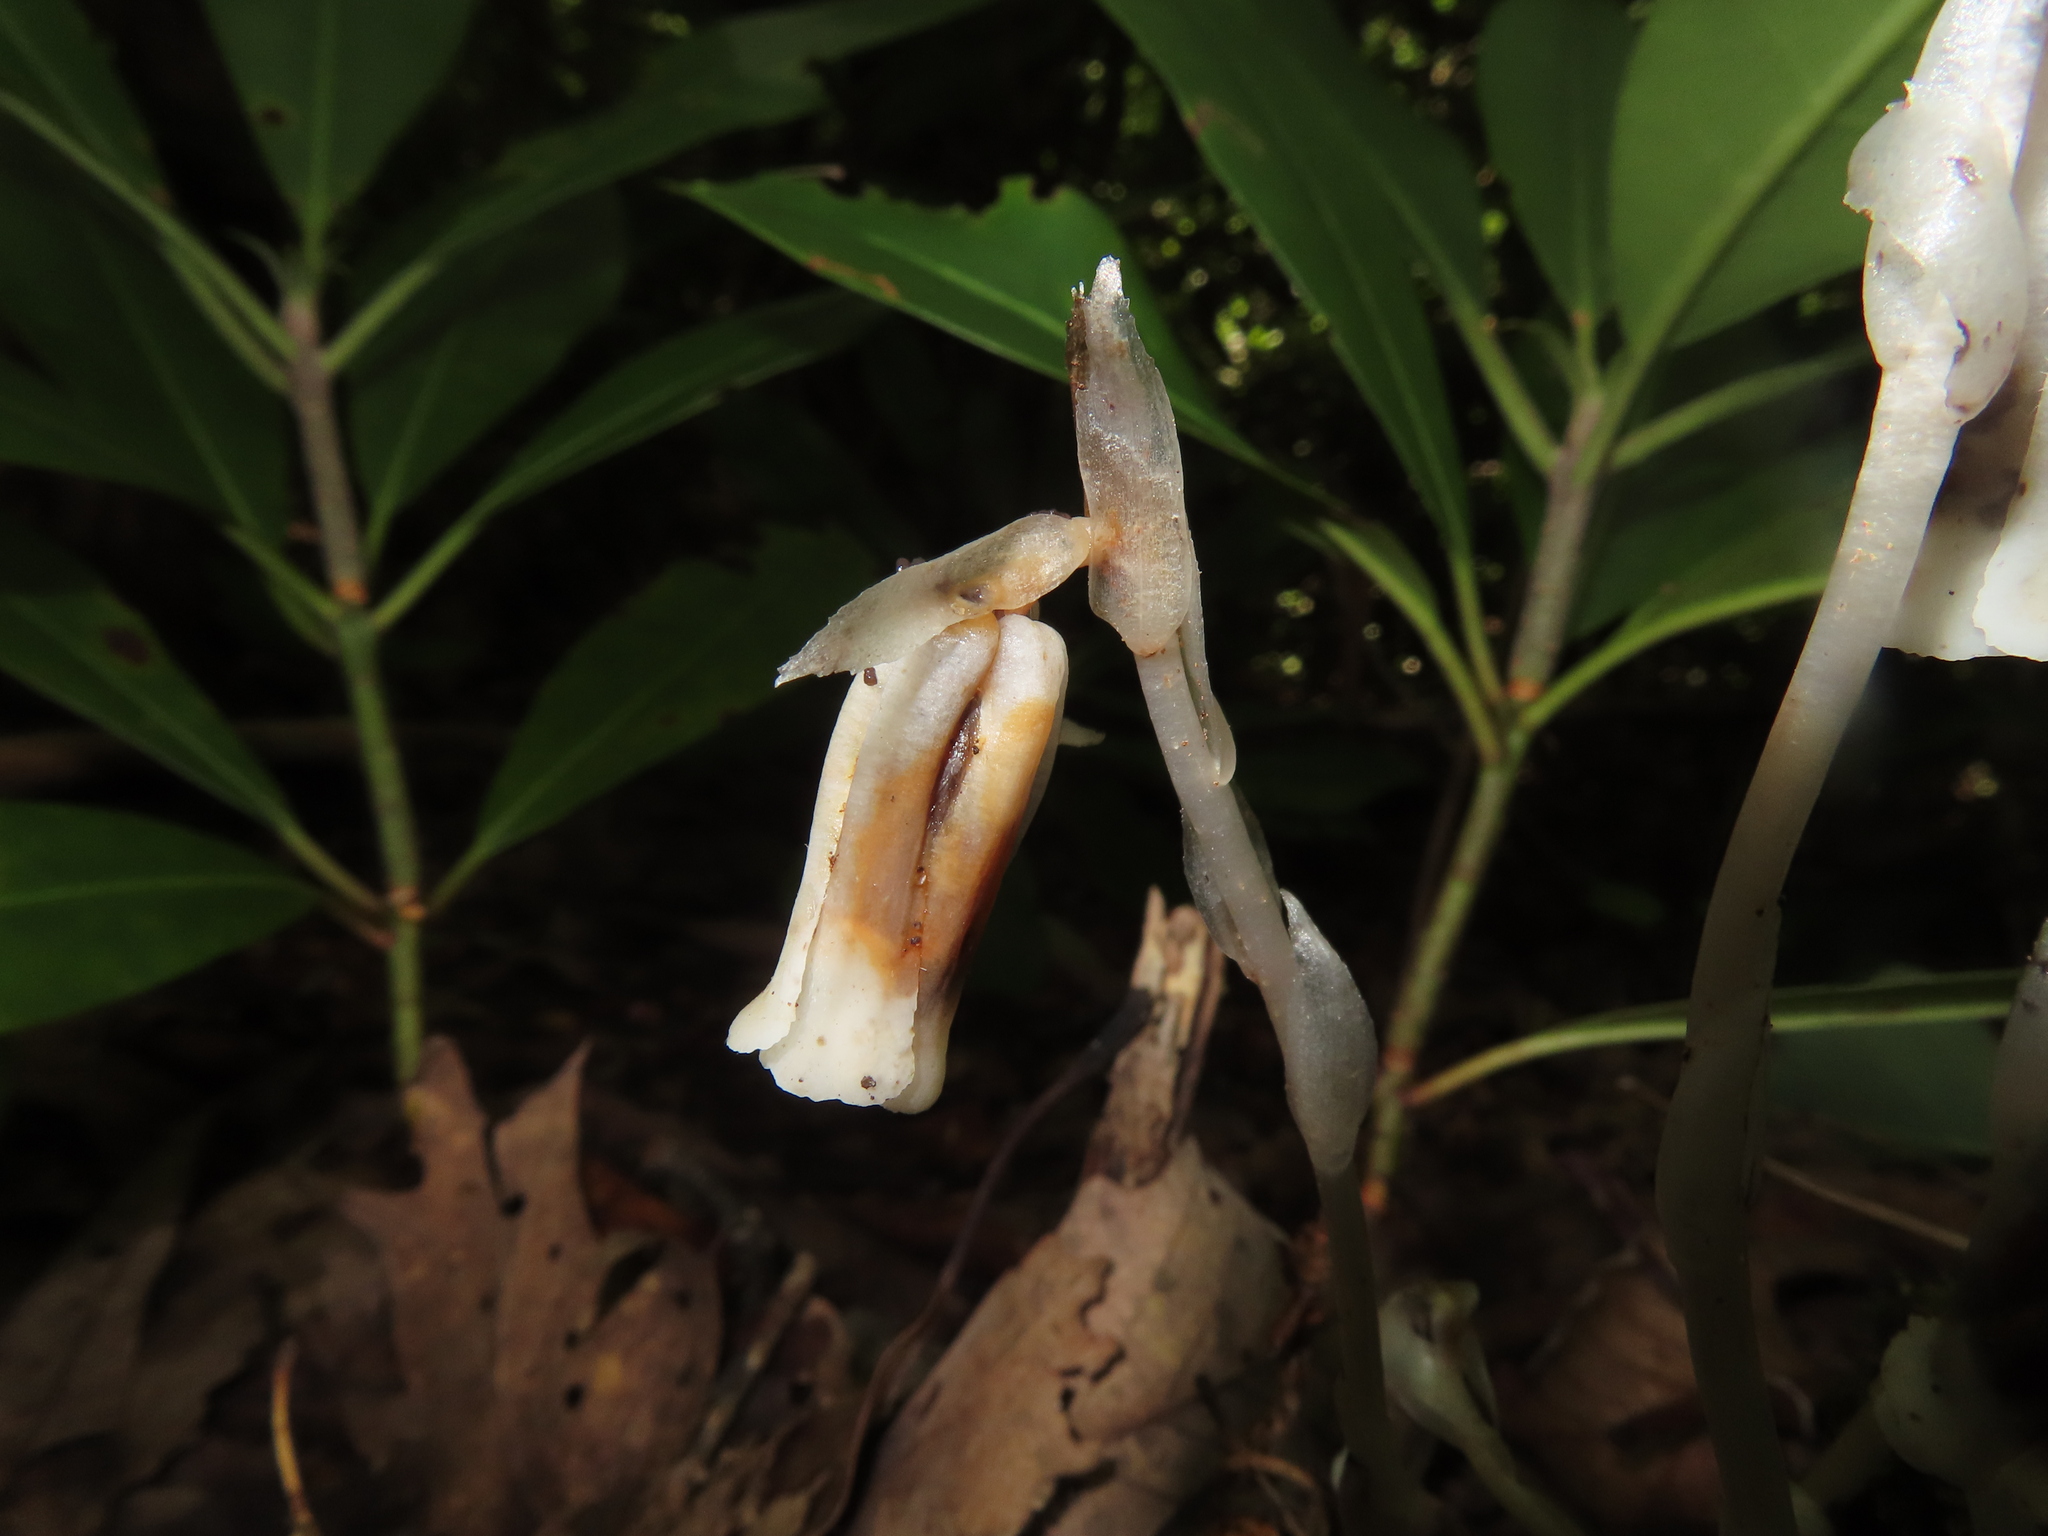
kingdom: Plantae
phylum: Tracheophyta
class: Magnoliopsida
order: Ericales
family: Ericaceae
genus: Monotropa
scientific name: Monotropa uniflora
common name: Convulsion root
